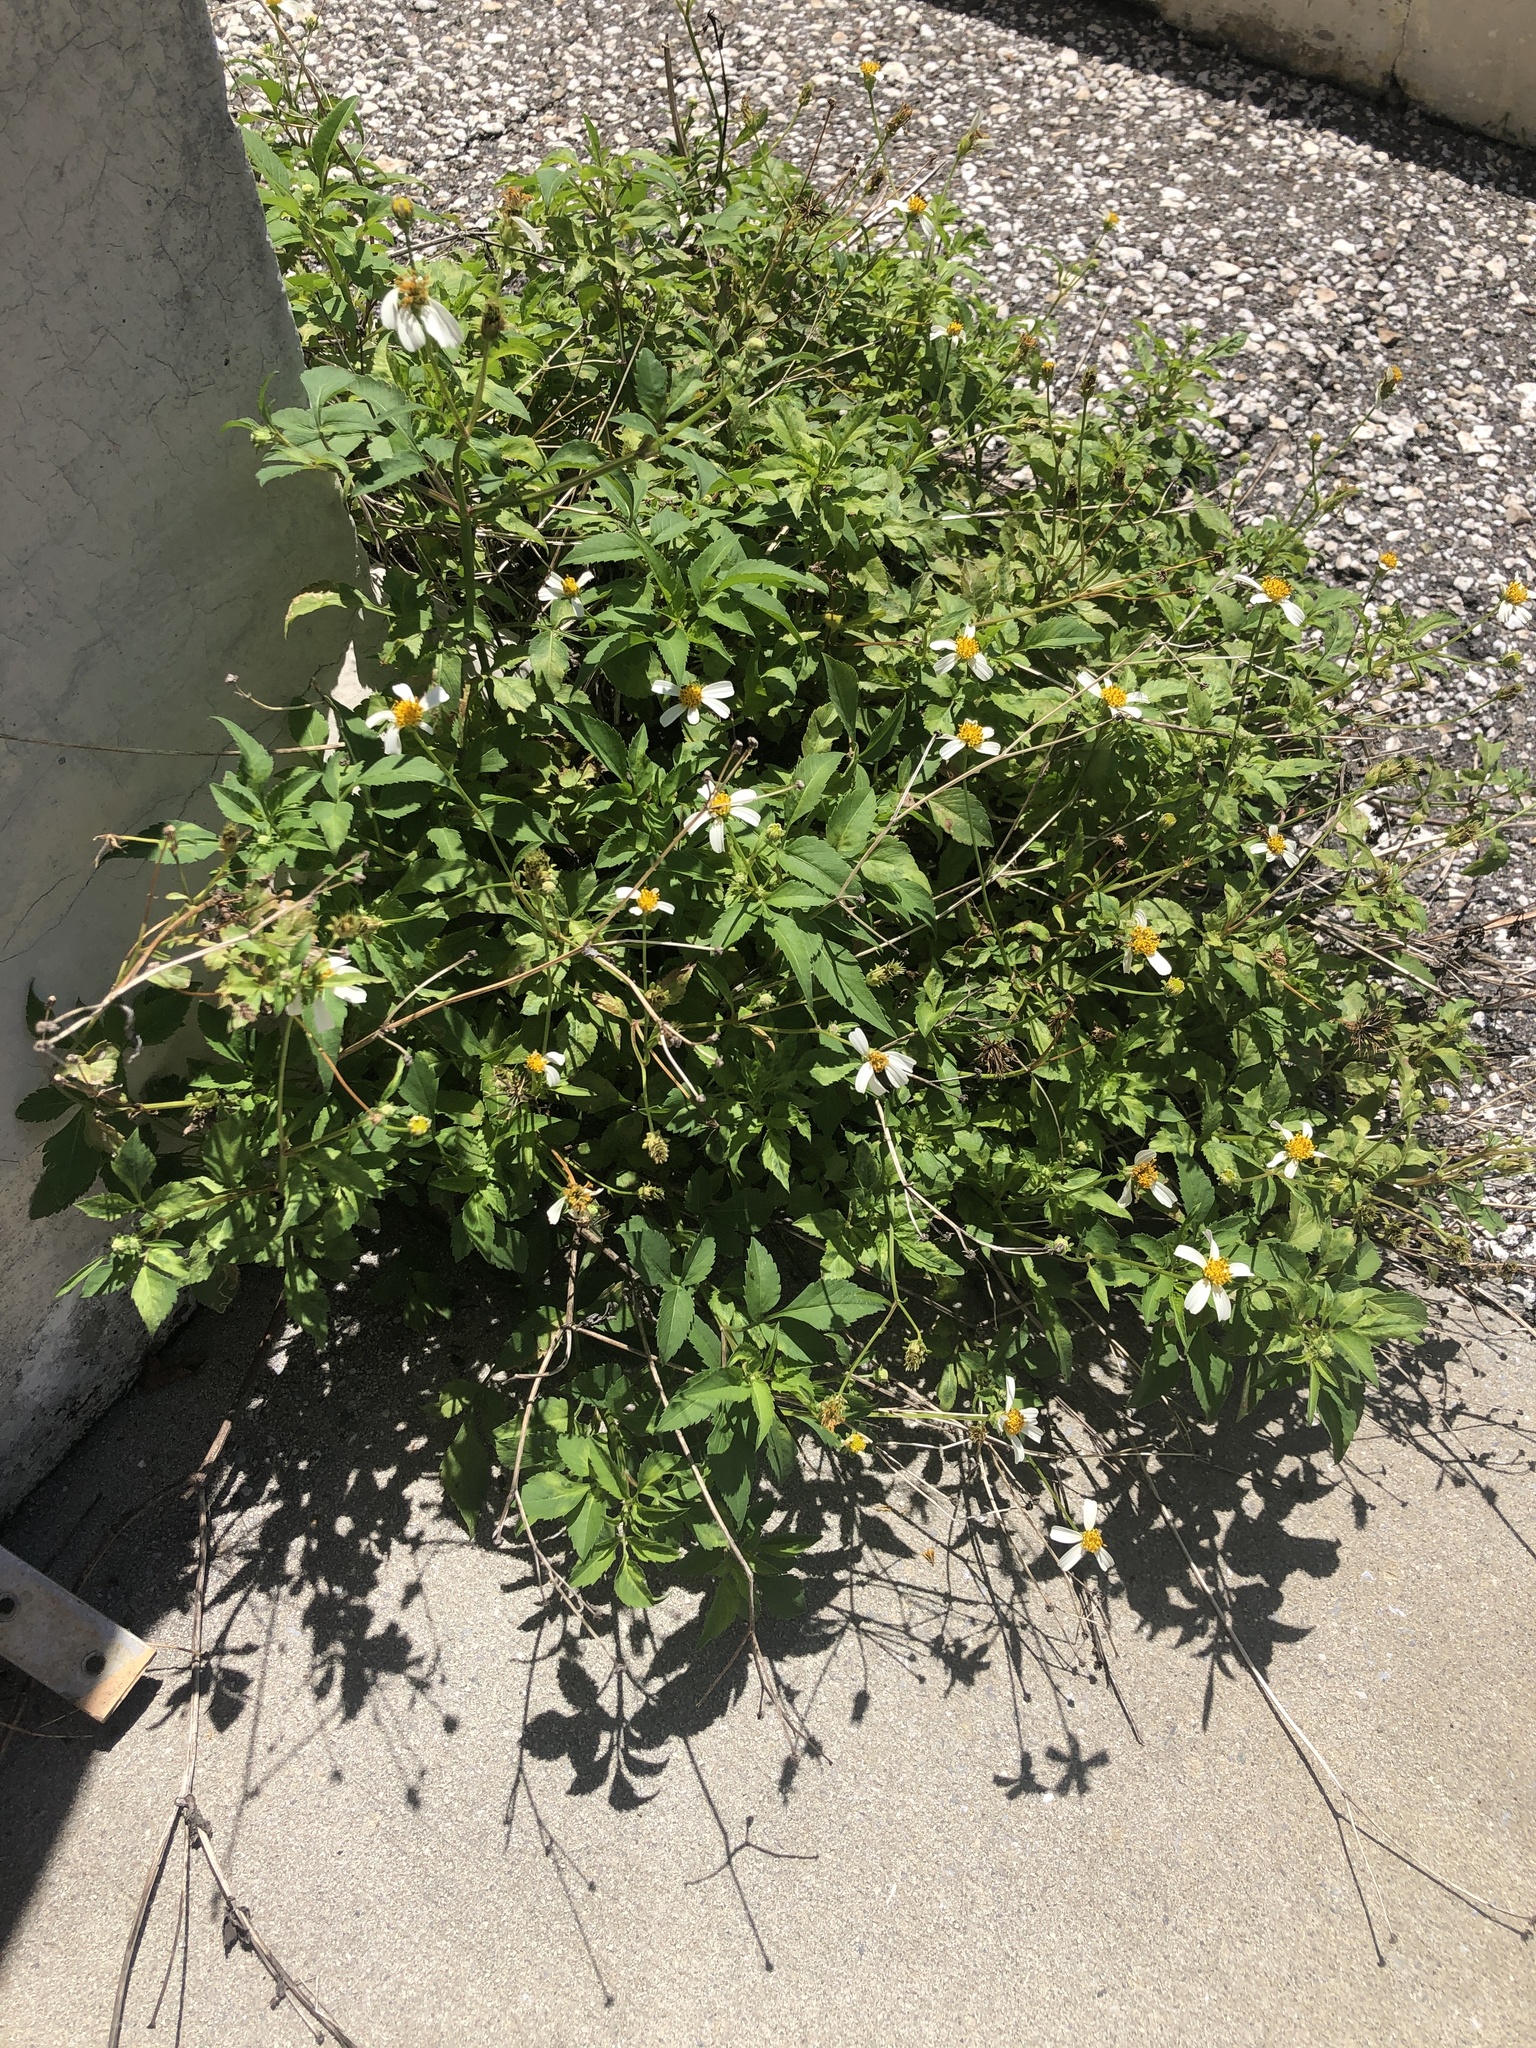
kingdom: Plantae
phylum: Tracheophyta
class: Magnoliopsida
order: Asterales
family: Asteraceae
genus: Bidens
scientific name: Bidens alba
